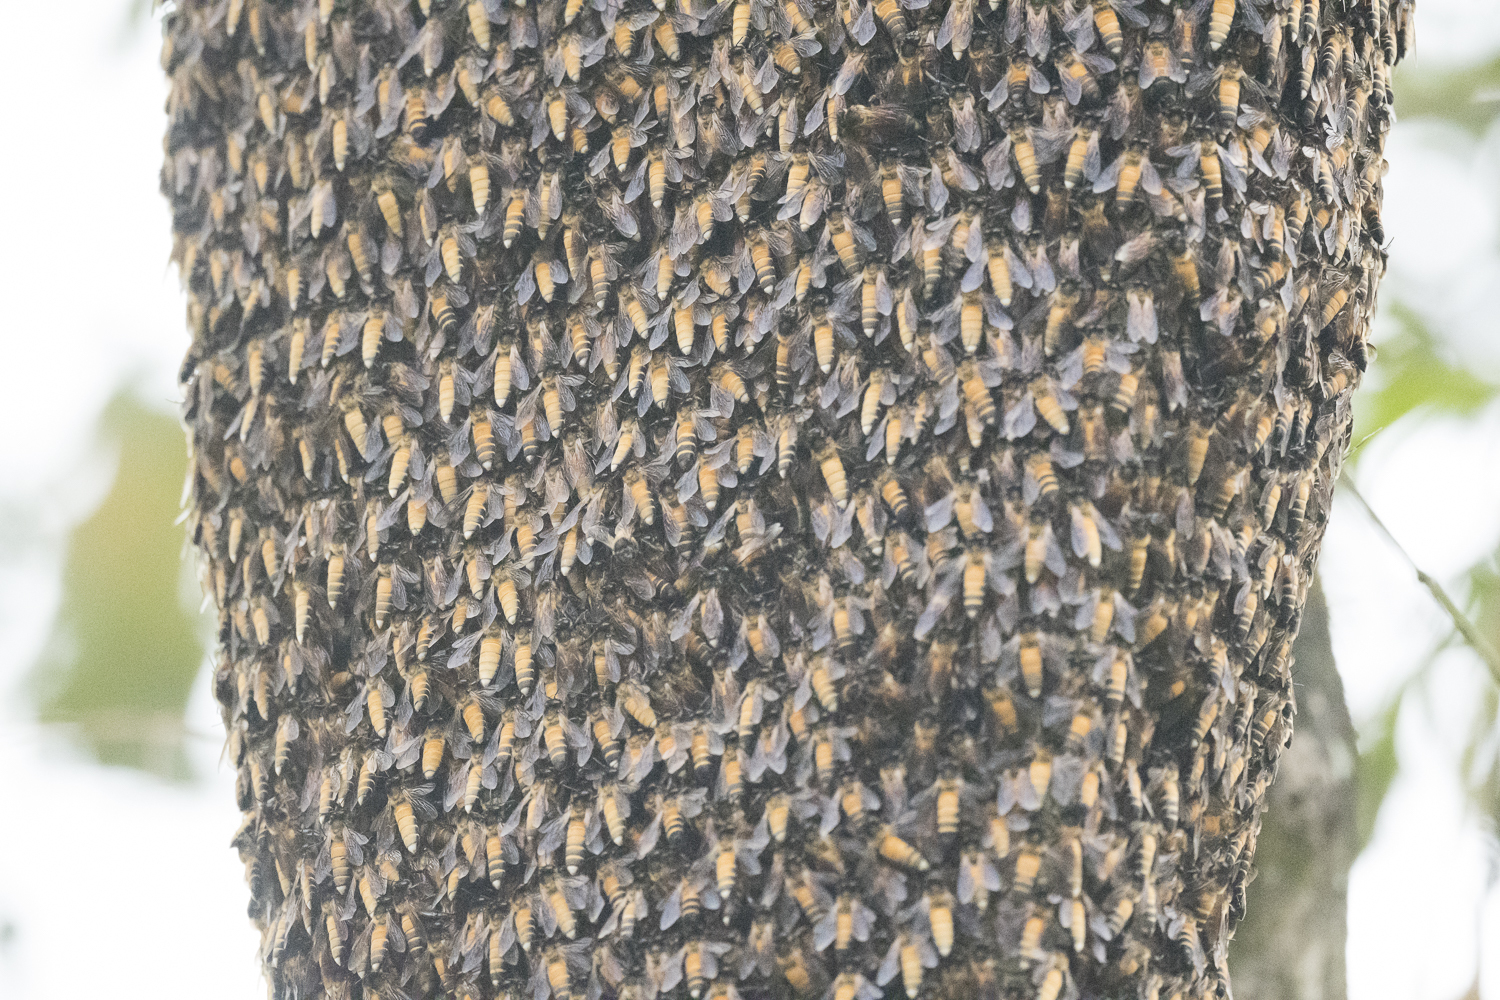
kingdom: Animalia
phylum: Arthropoda
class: Insecta
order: Hymenoptera
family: Apidae
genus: Apis
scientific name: Apis dorsata
